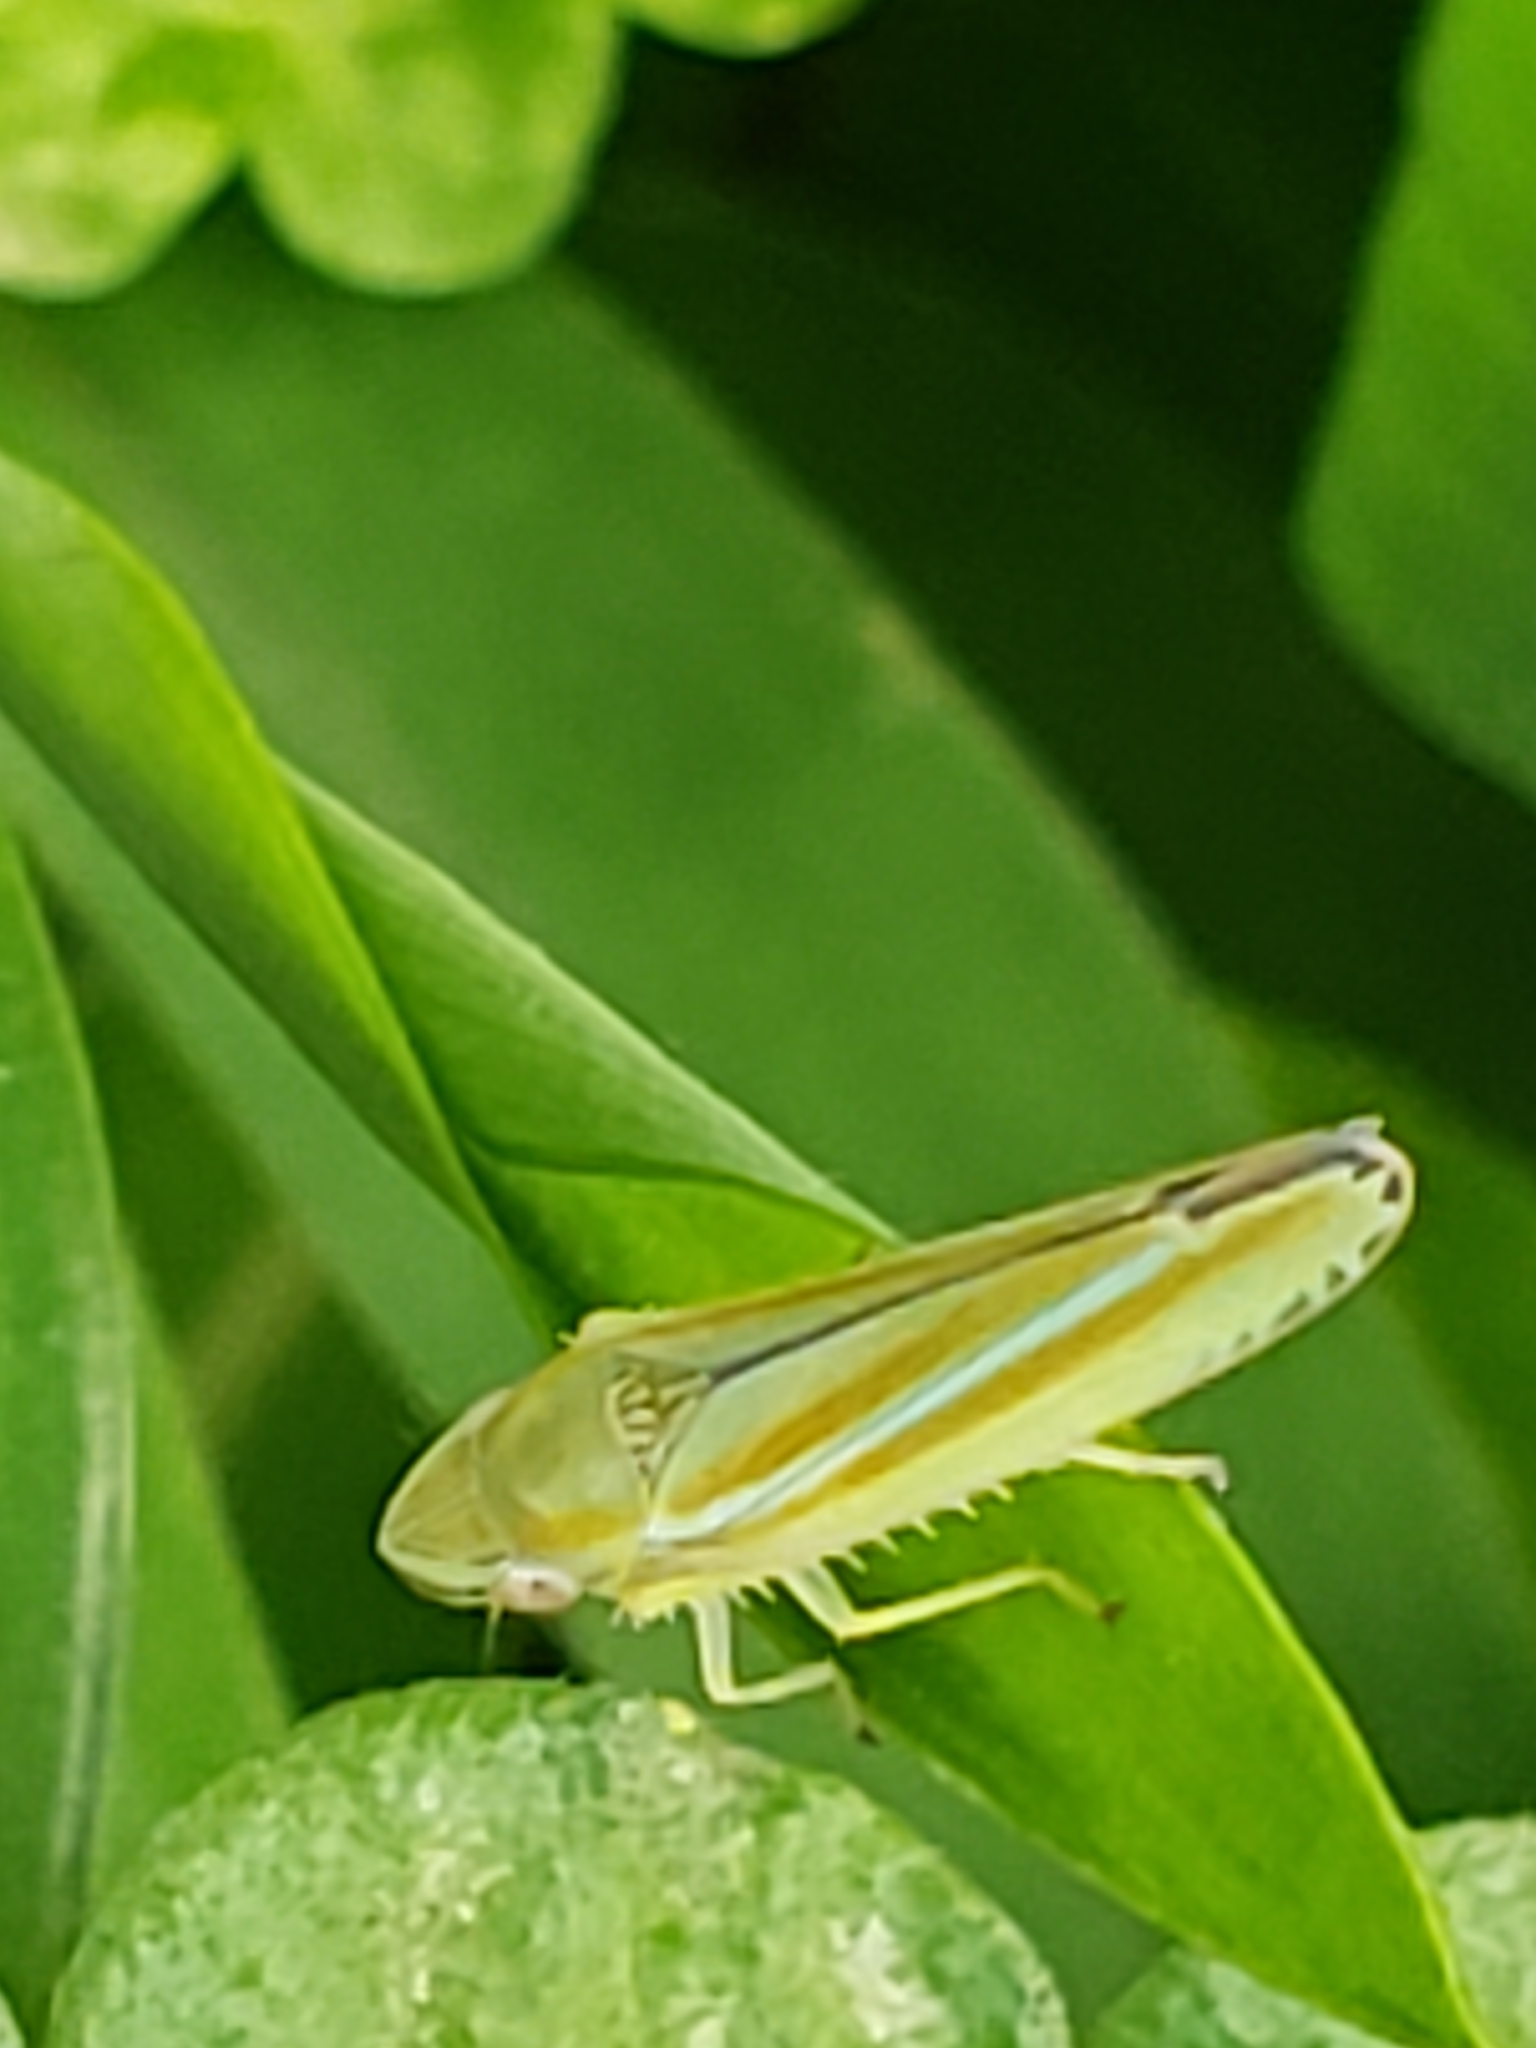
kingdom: Animalia
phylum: Arthropoda
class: Insecta
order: Hemiptera
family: Cicadellidae
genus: Graphocephala
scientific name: Graphocephala versuta
